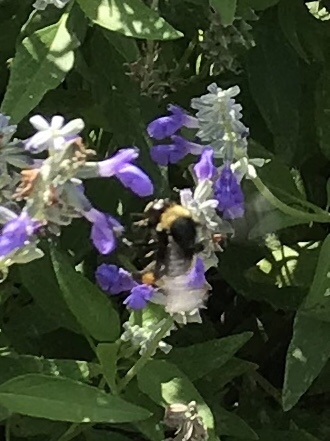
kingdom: Animalia
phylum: Arthropoda
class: Insecta
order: Hymenoptera
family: Apidae
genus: Bombus
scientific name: Bombus pensylvanicus
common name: Bumble bee
